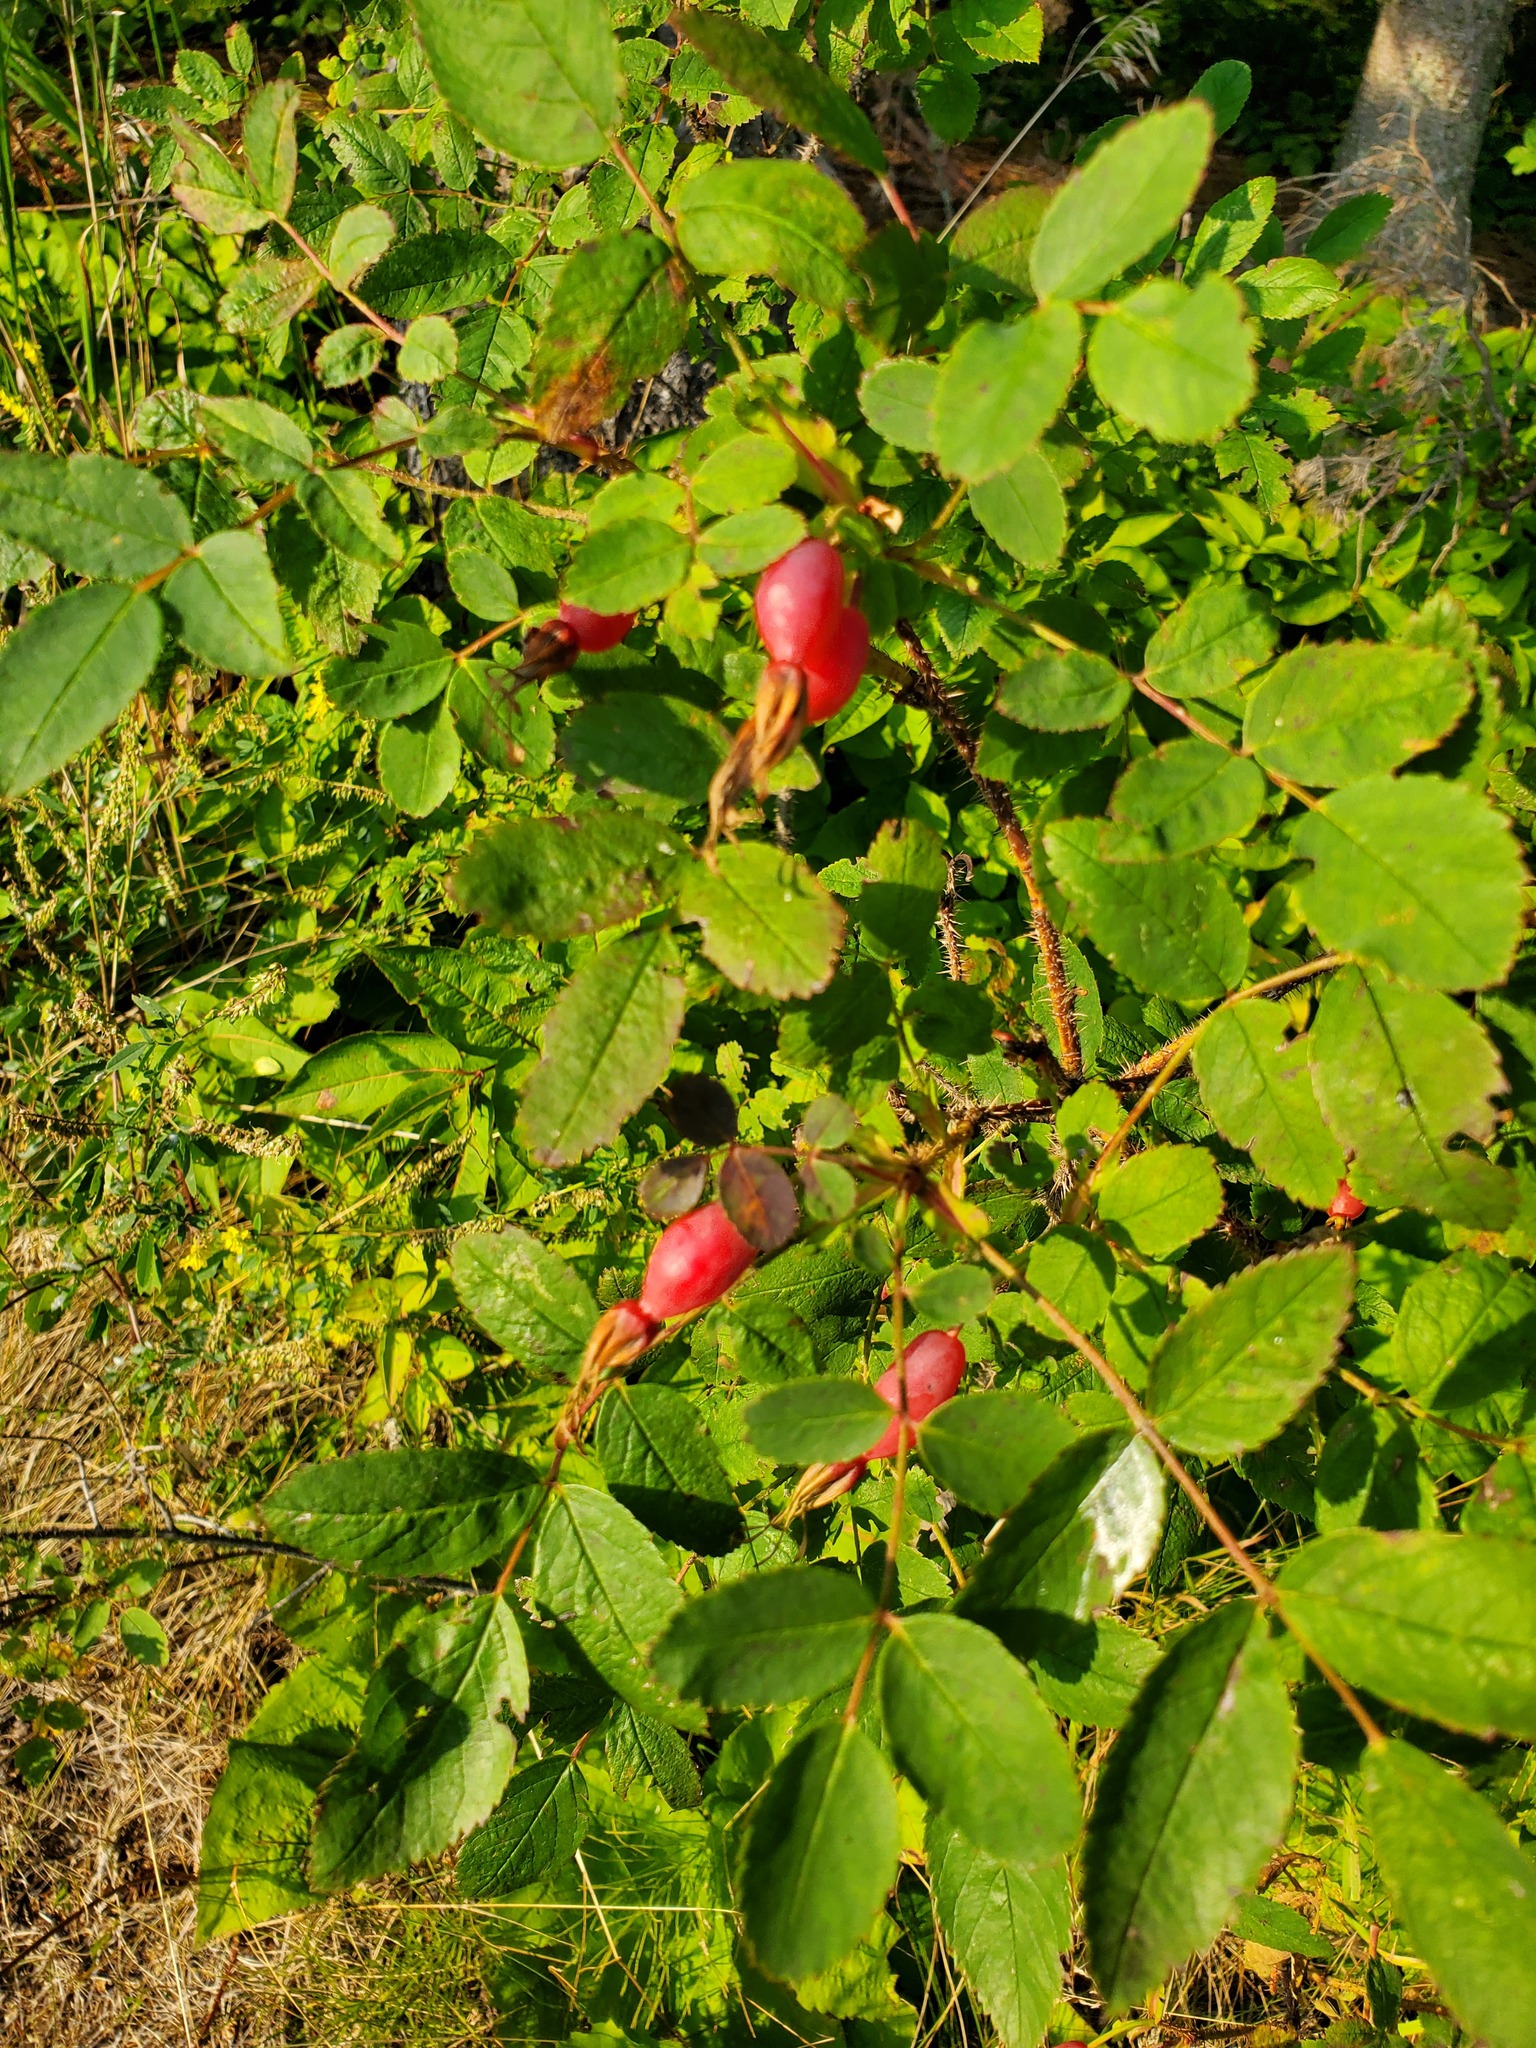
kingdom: Plantae
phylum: Tracheophyta
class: Magnoliopsida
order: Rosales
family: Rosaceae
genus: Rosa
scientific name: Rosa acicularis
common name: Prickly rose
